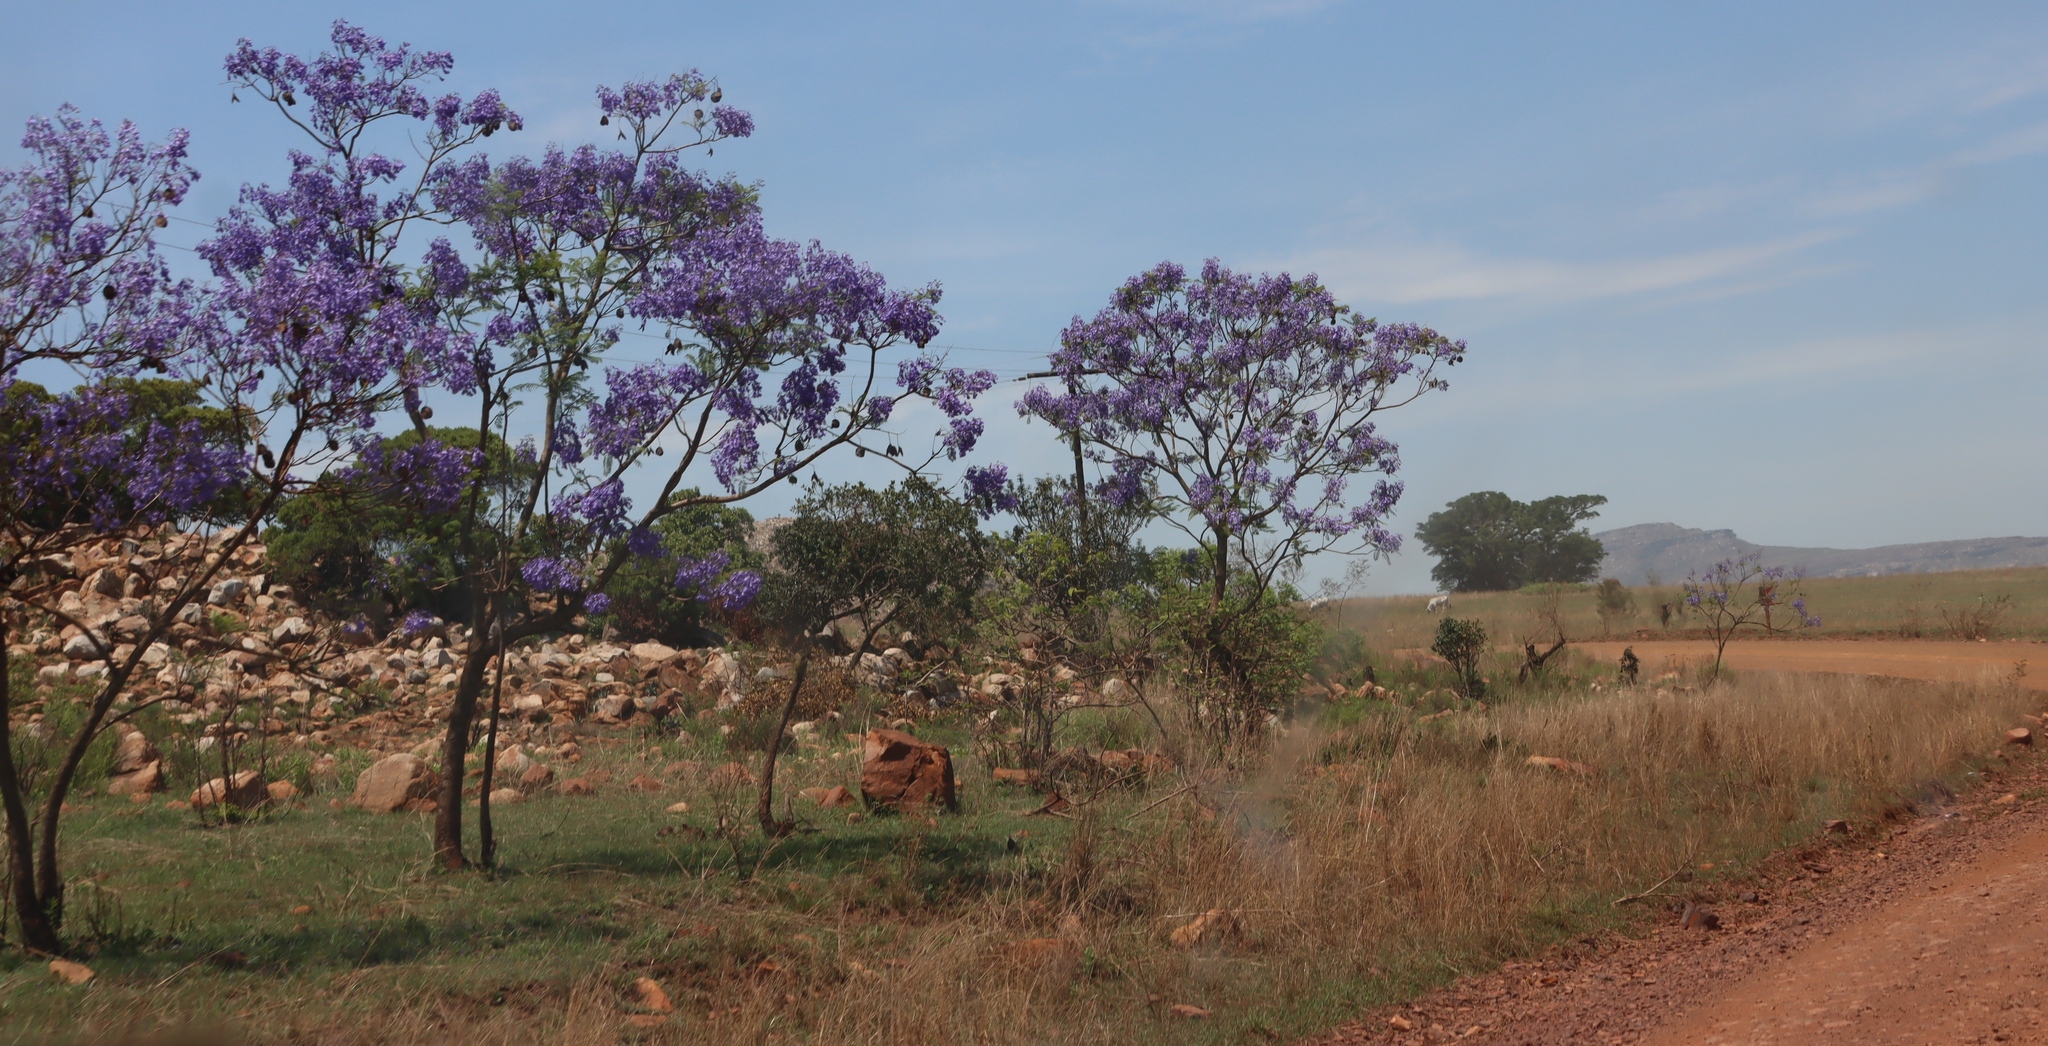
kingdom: Plantae
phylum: Tracheophyta
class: Magnoliopsida
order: Lamiales
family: Bignoniaceae
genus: Jacaranda
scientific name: Jacaranda mimosifolia
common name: Black poui
